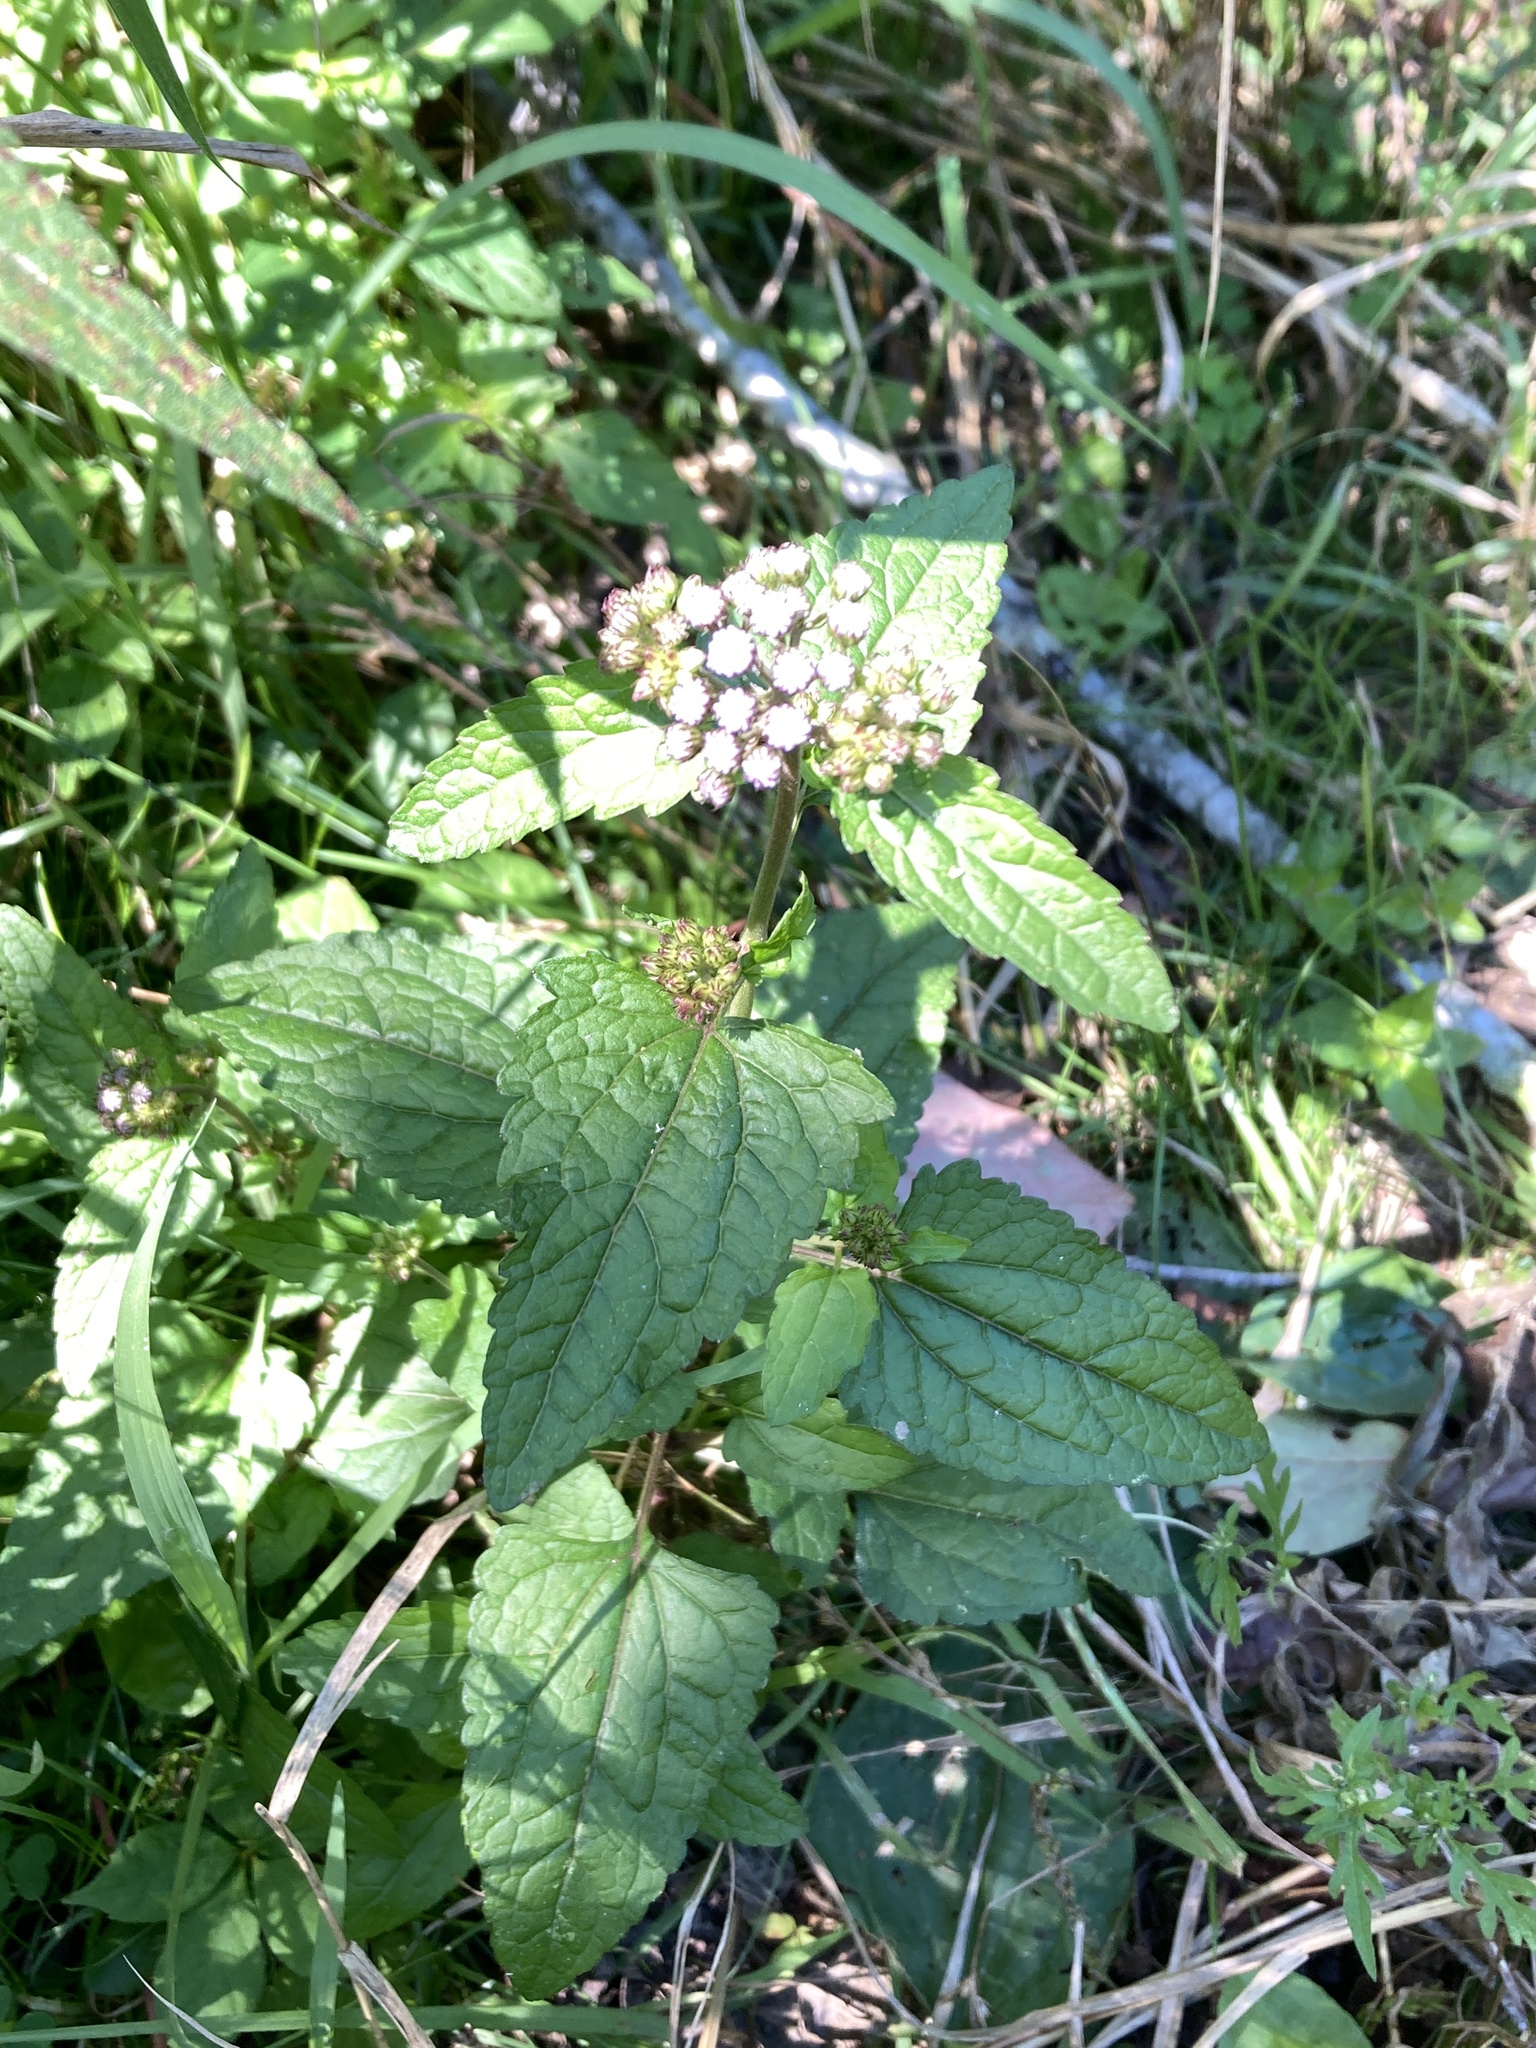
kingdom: Plantae
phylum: Tracheophyta
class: Magnoliopsida
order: Asterales
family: Asteraceae
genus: Conoclinium
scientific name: Conoclinium coelestinum
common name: Blue mistflower
